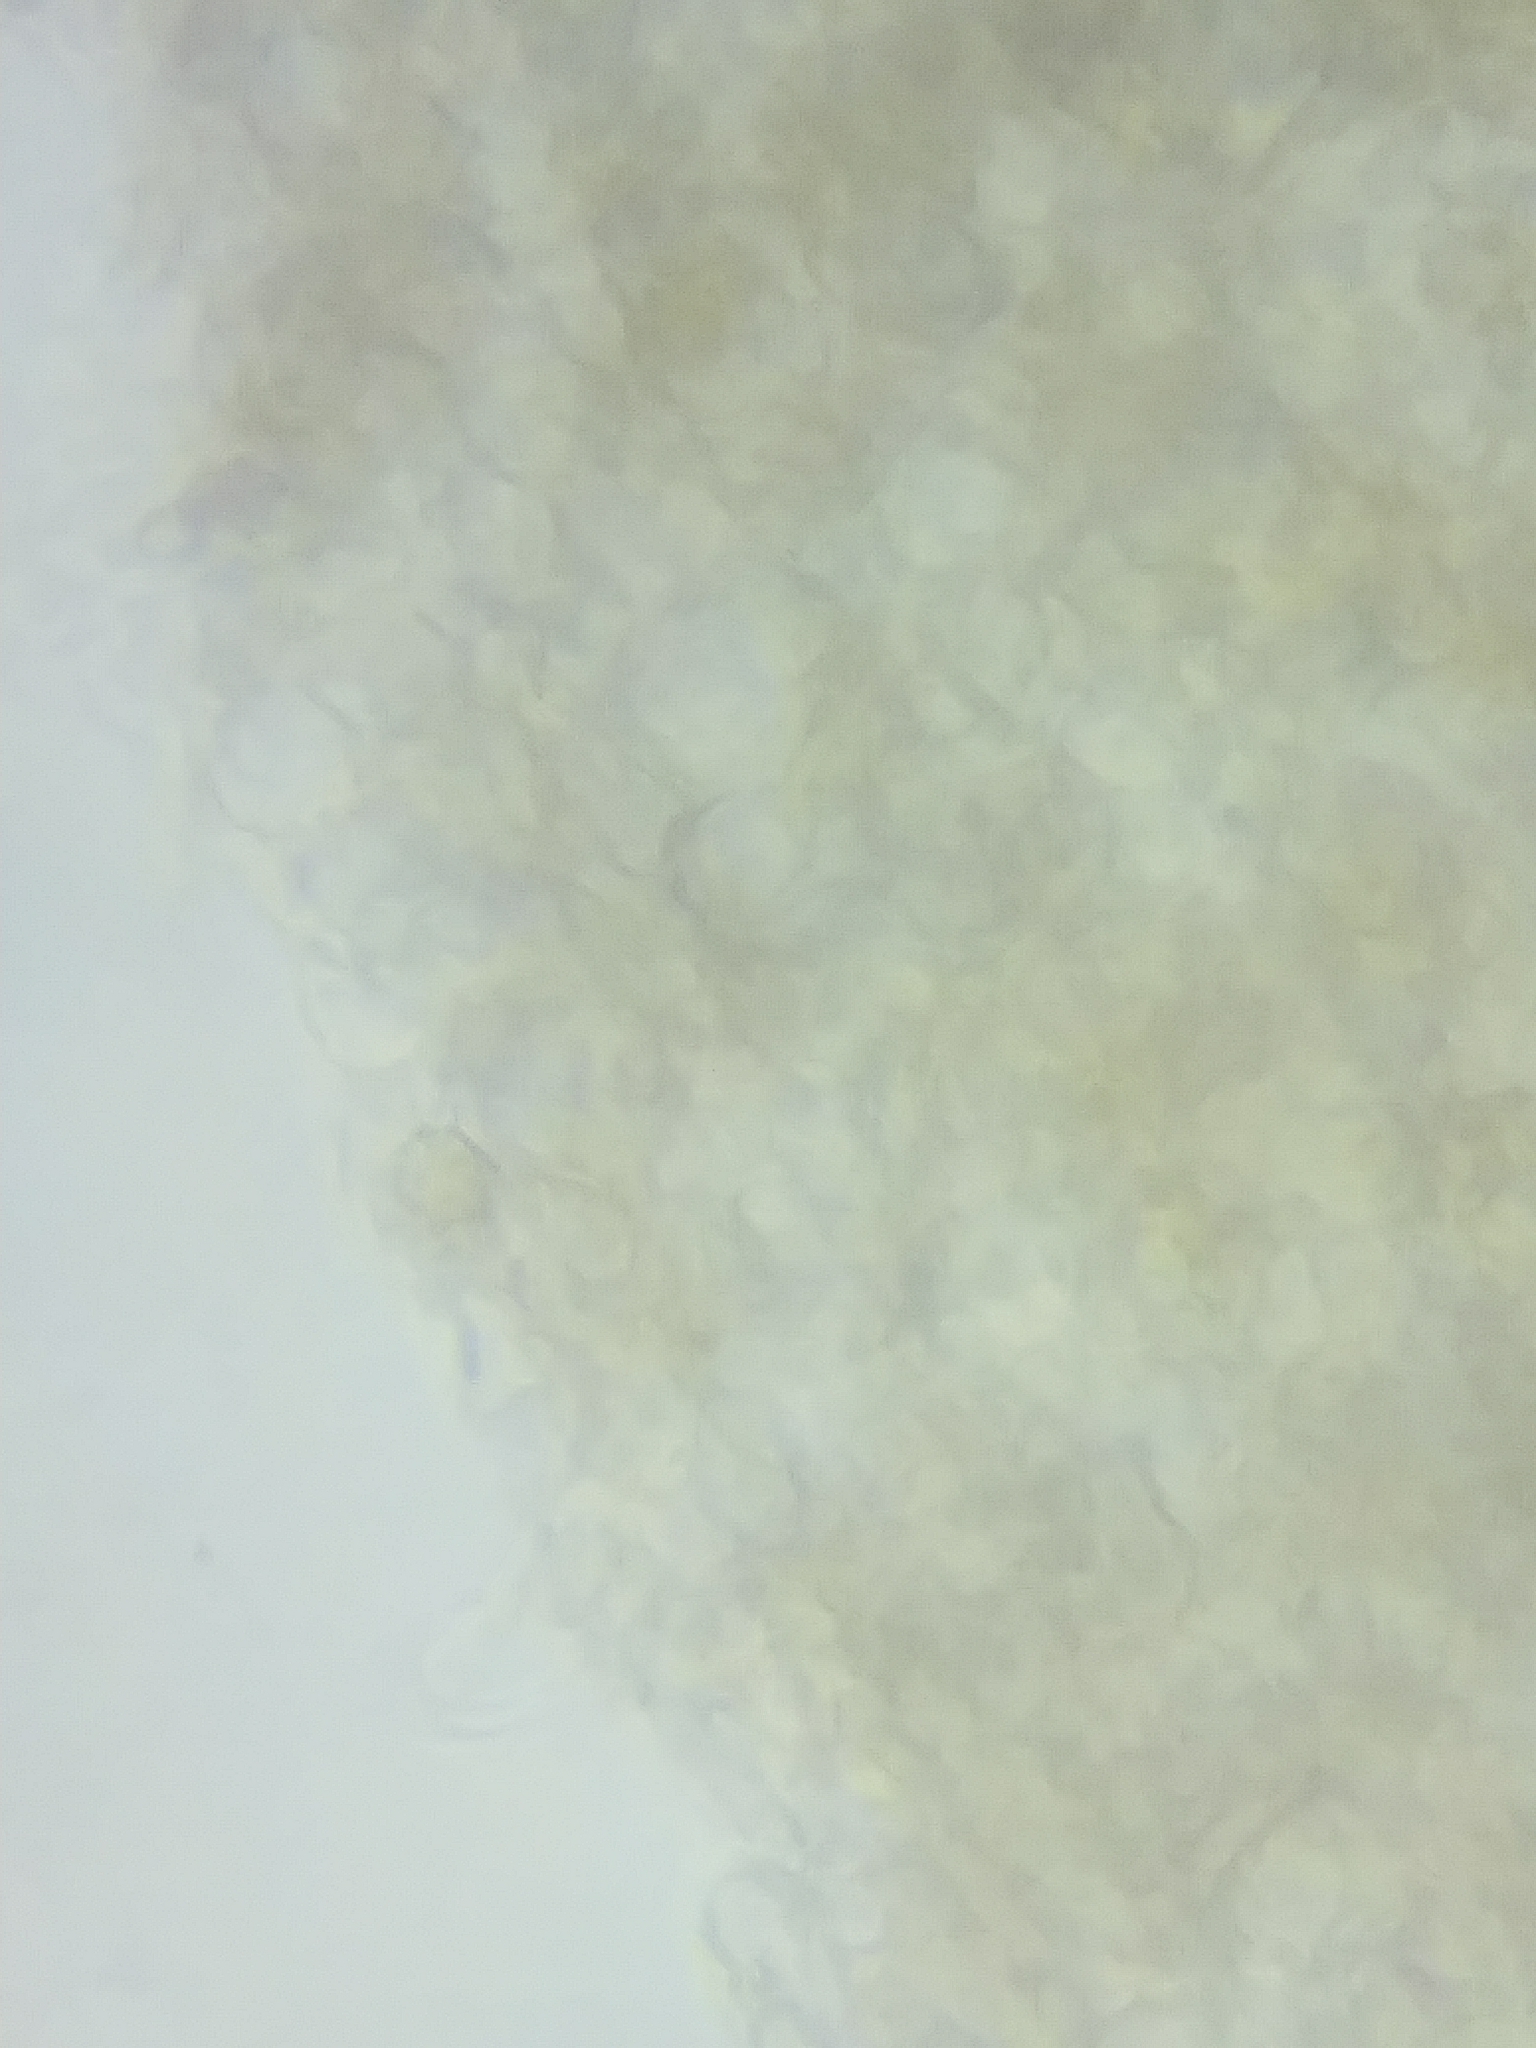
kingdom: Fungi
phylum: Basidiomycota
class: Agaricomycetes
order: Agaricales
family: Strophariaceae
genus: Agrocybe
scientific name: Agrocybe firma
